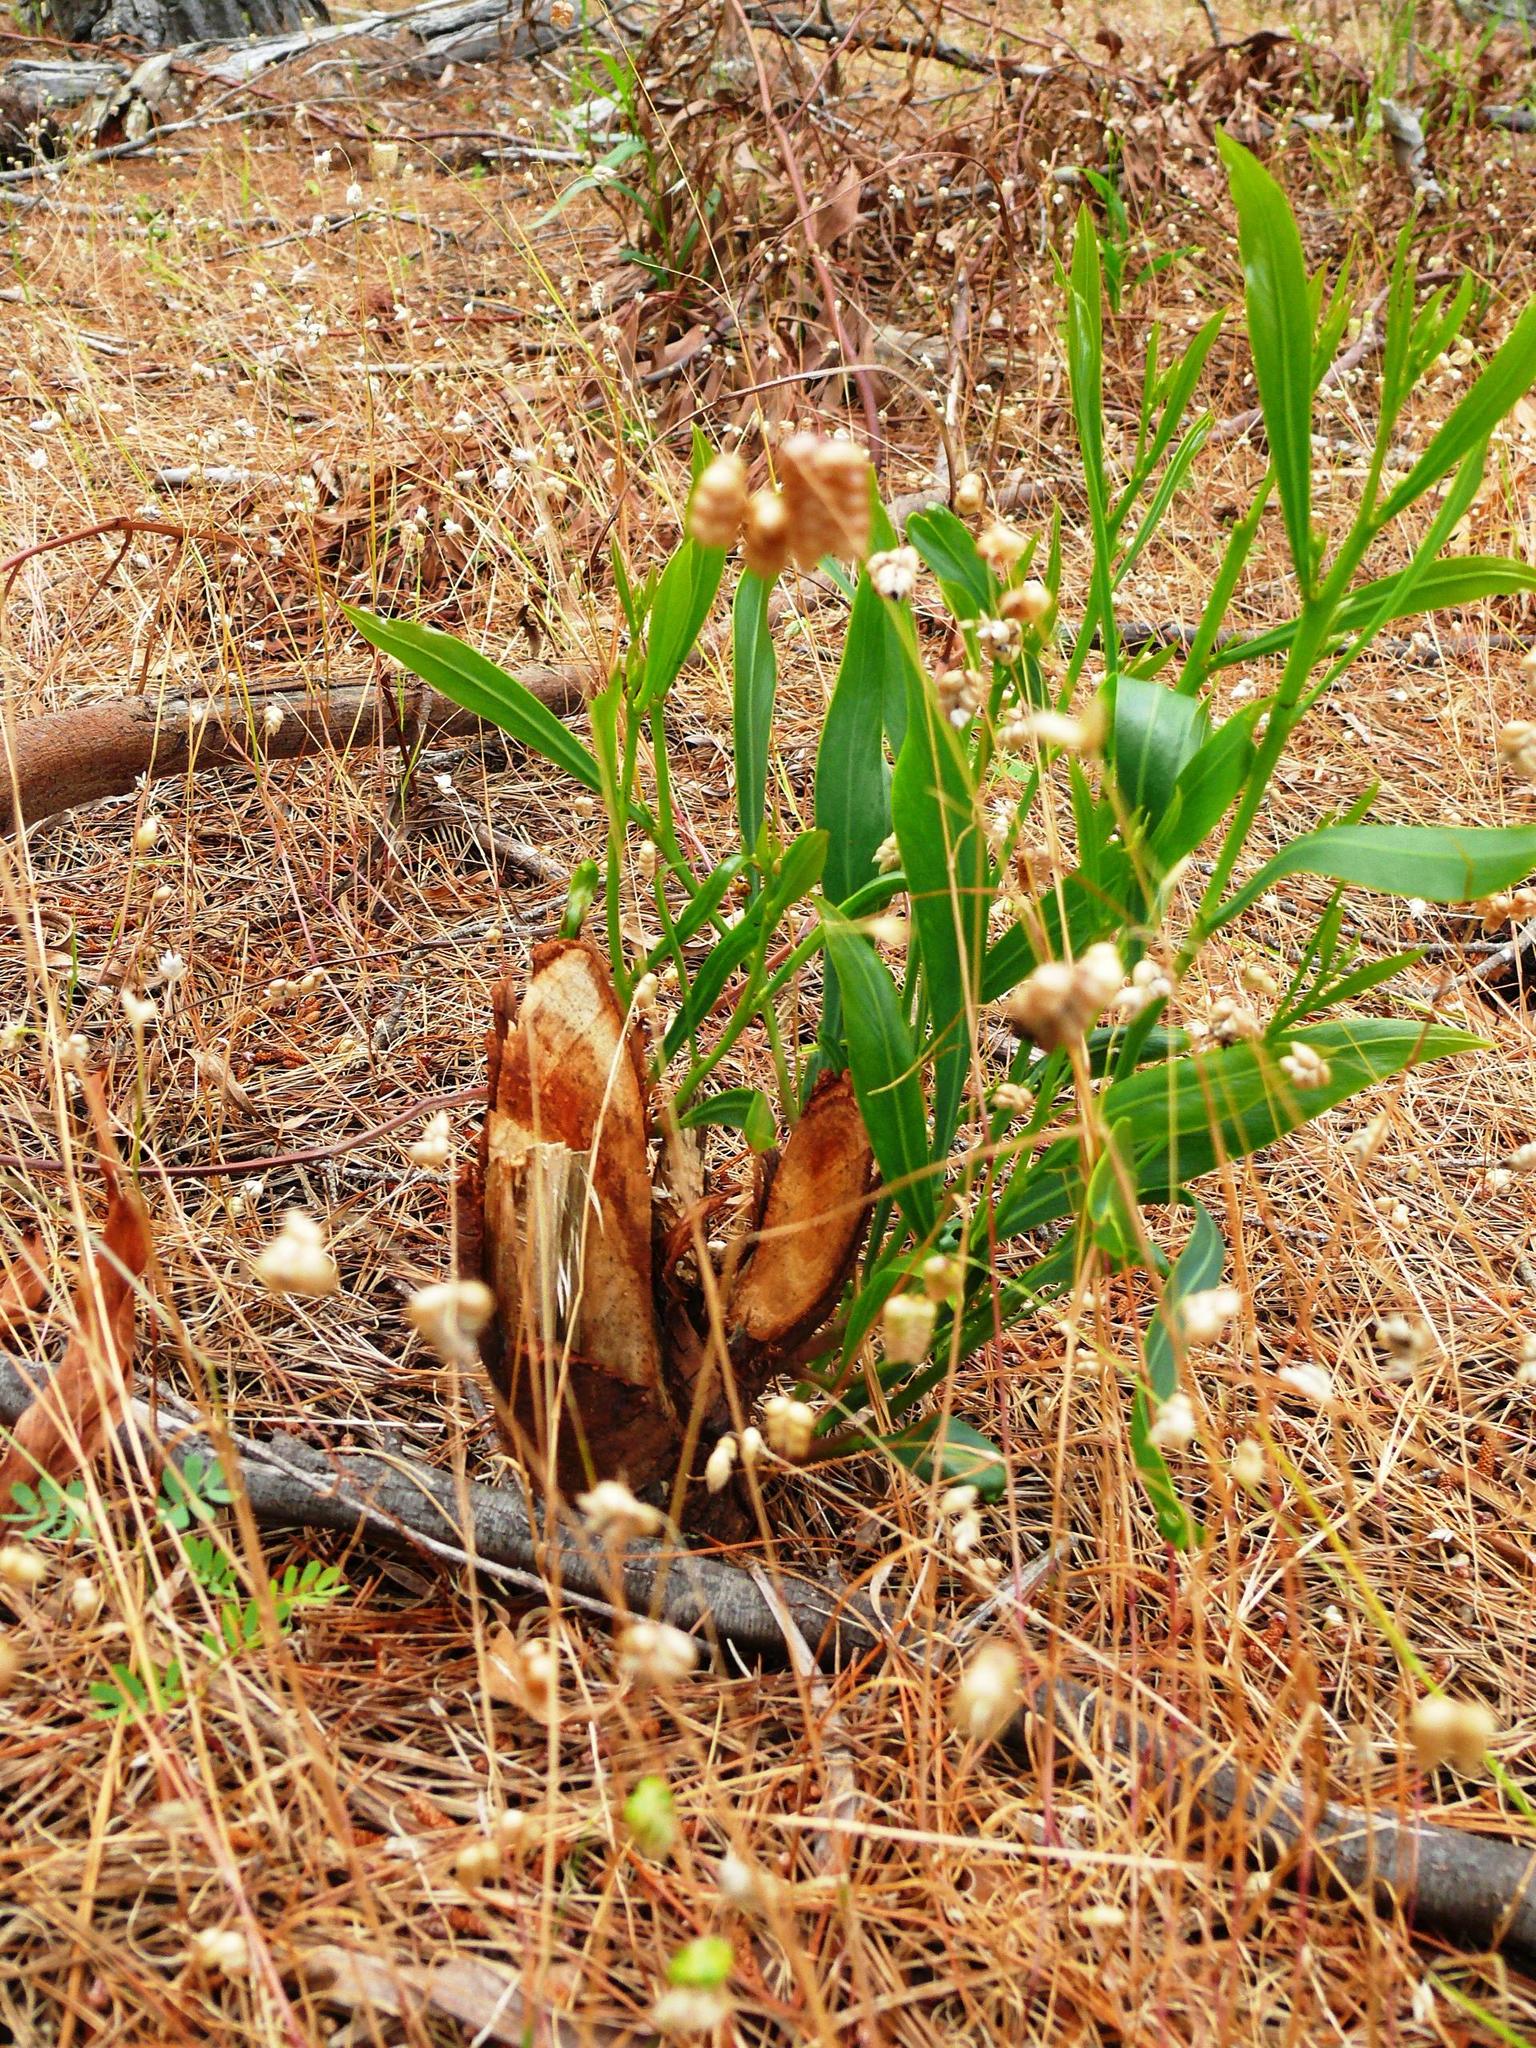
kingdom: Plantae
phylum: Tracheophyta
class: Magnoliopsida
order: Fabales
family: Fabaceae
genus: Acacia
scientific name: Acacia saligna
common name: Orange wattle
